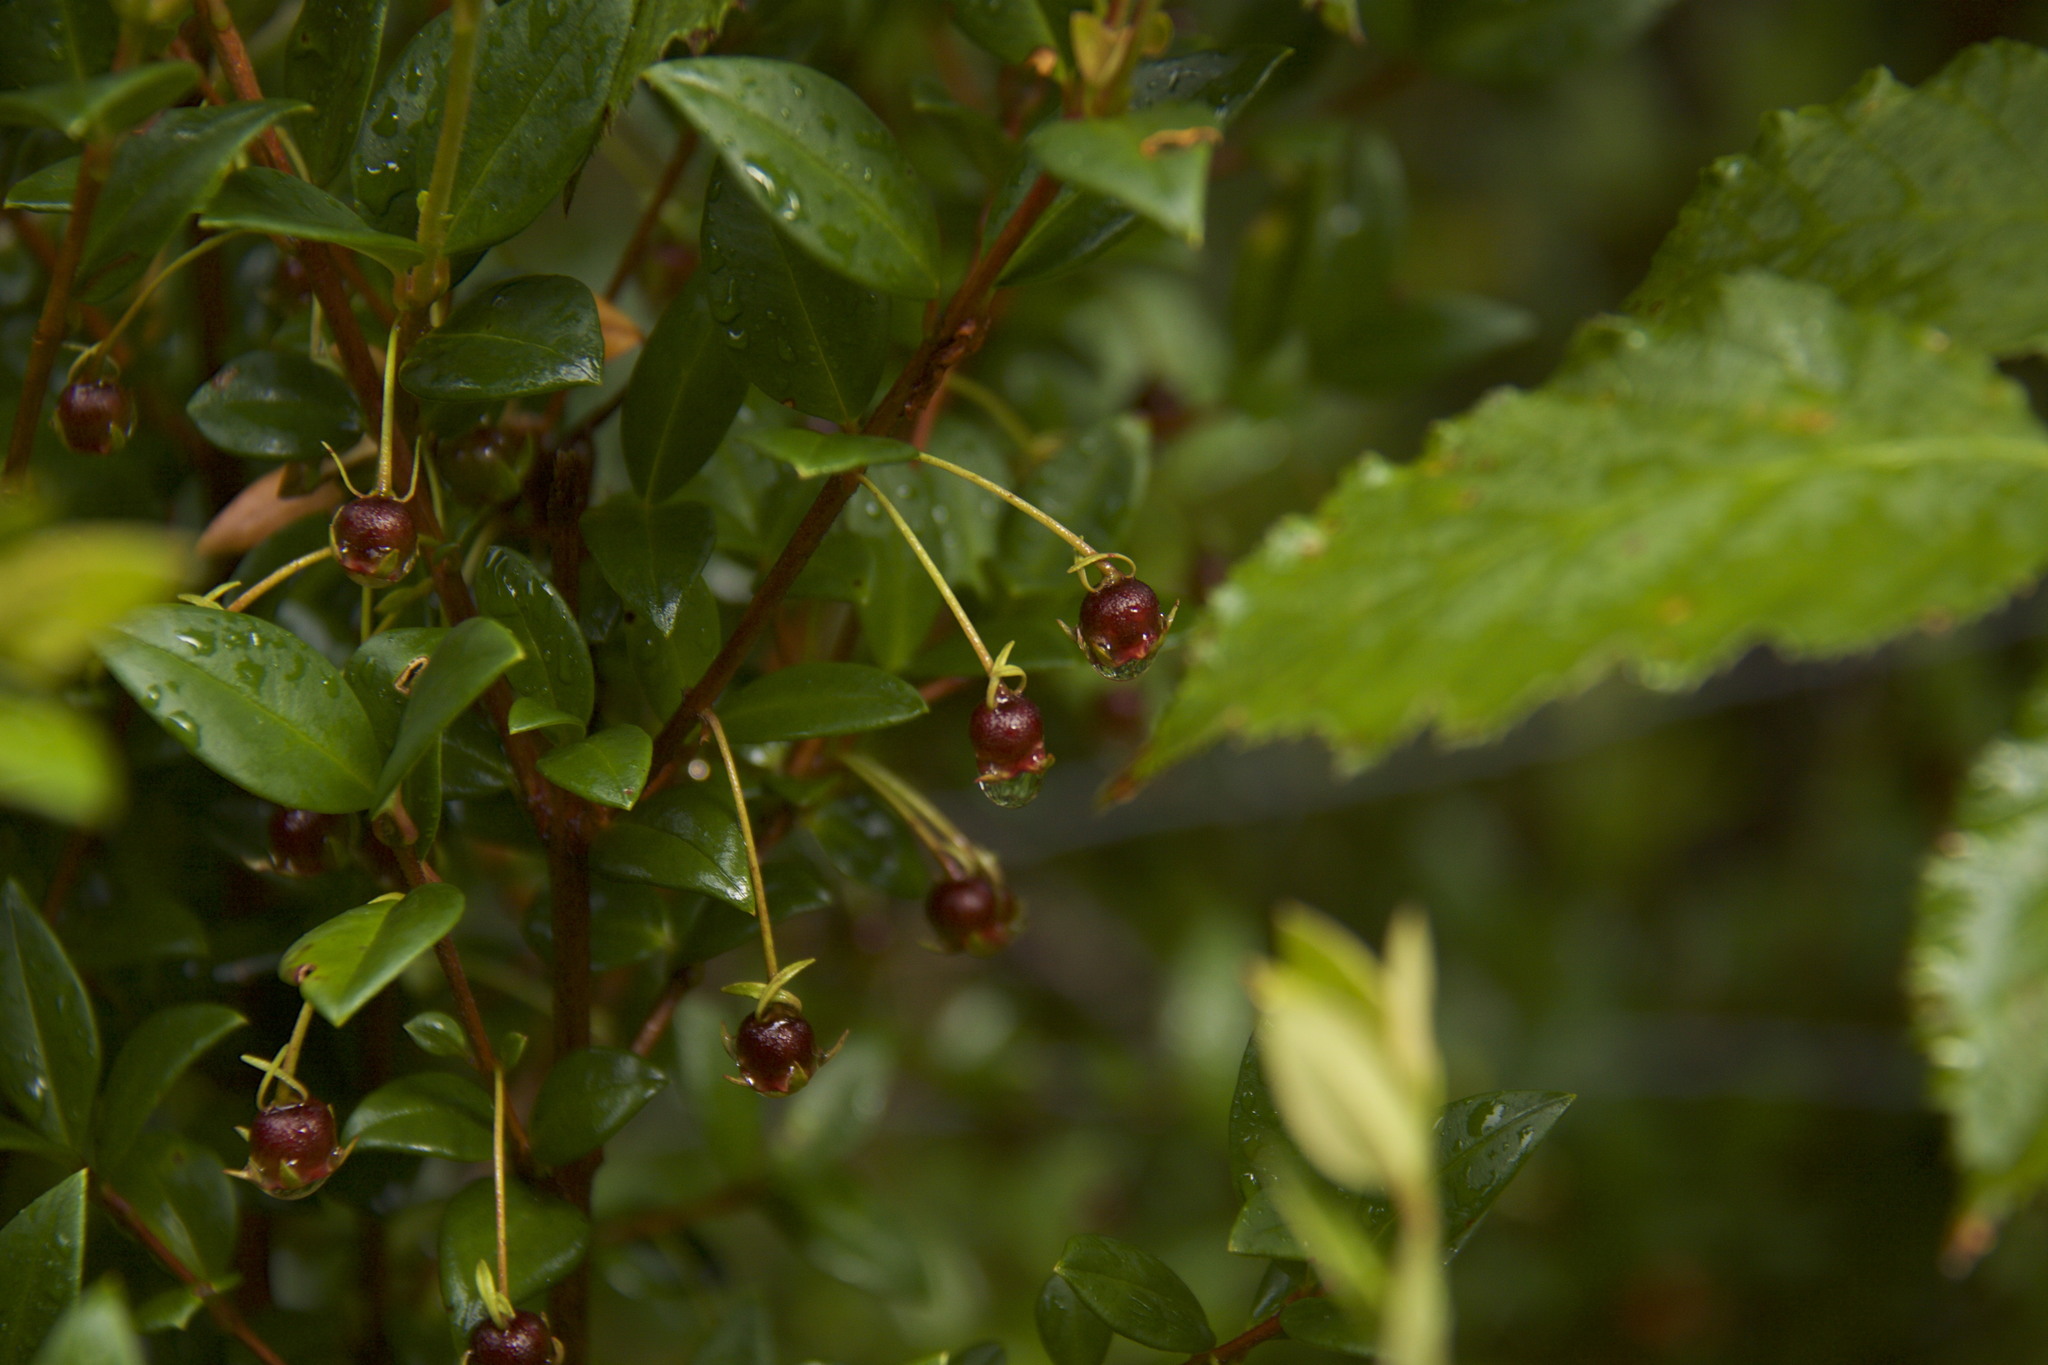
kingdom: Plantae
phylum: Tracheophyta
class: Magnoliopsida
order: Myrtales
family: Myrtaceae
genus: Ugni
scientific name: Ugni molinae
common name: Chilean-guava
